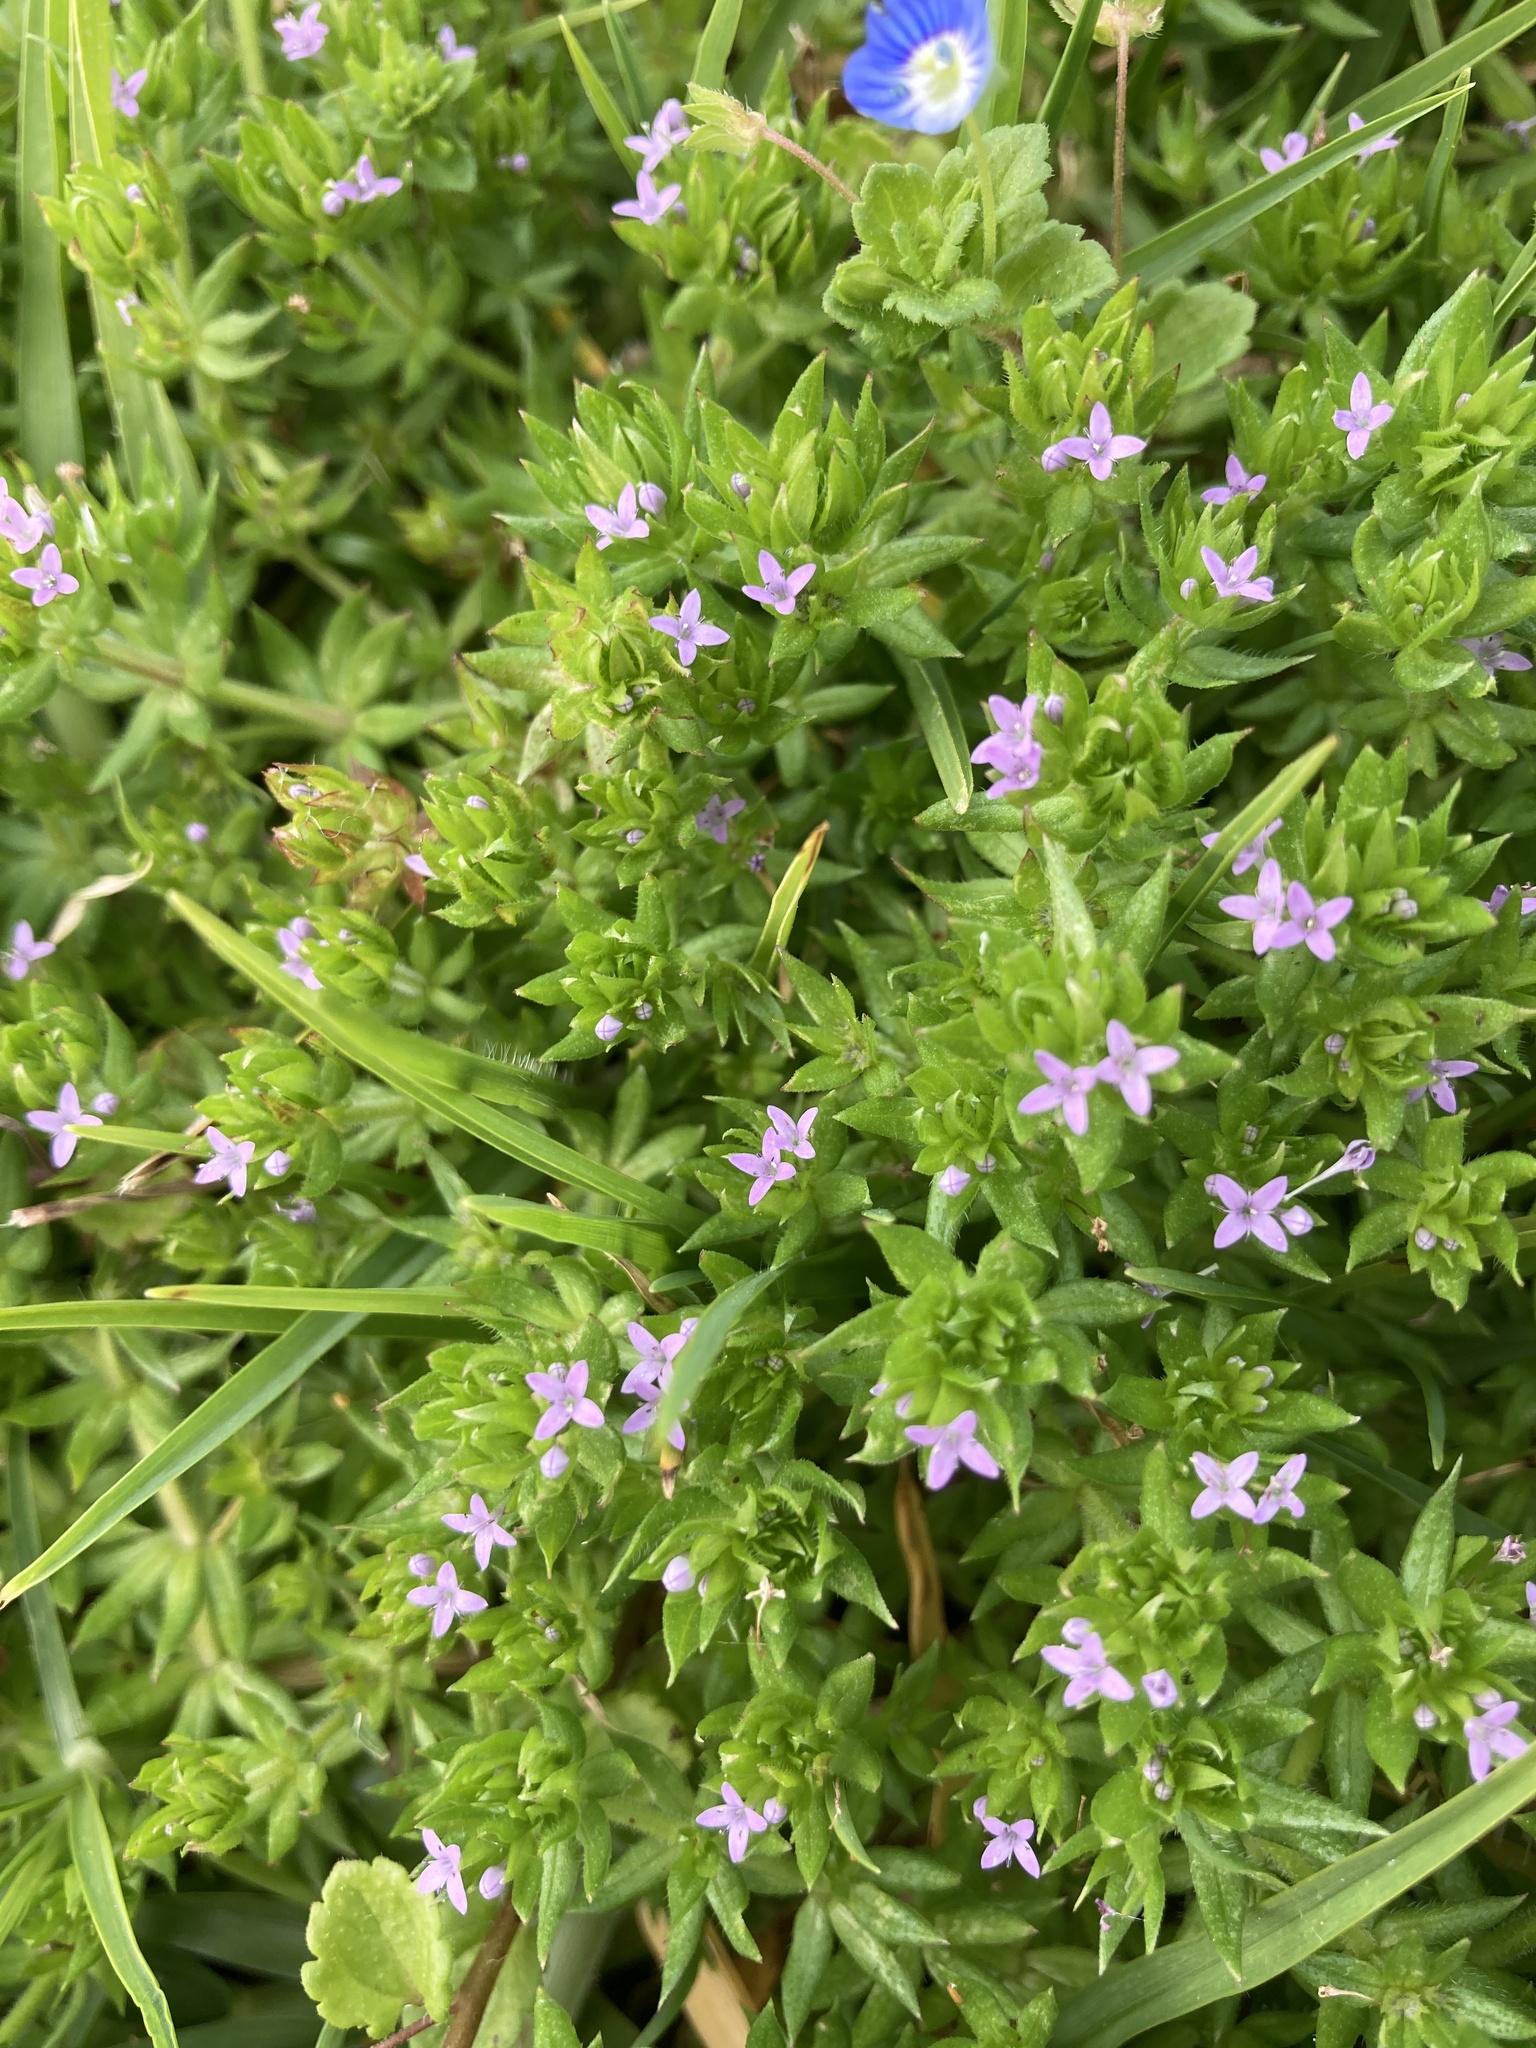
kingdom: Plantae
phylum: Tracheophyta
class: Magnoliopsida
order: Gentianales
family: Rubiaceae
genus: Sherardia
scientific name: Sherardia arvensis
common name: Field madder
